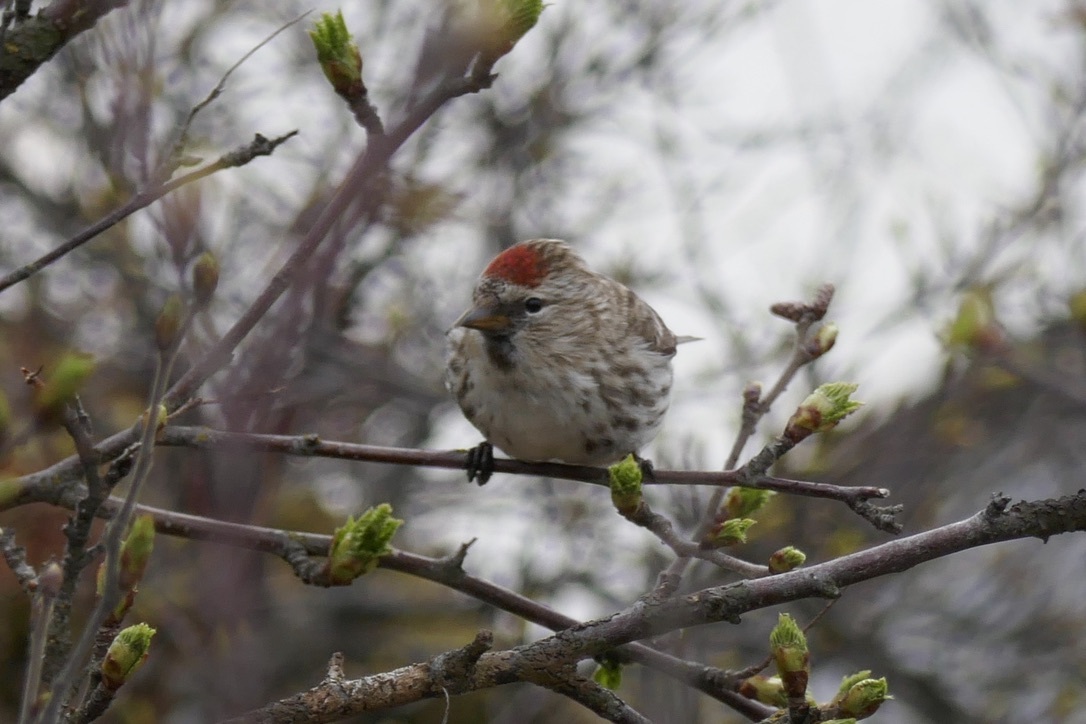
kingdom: Animalia
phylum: Chordata
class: Aves
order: Passeriformes
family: Fringillidae
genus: Acanthis
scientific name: Acanthis flammea
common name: Common redpoll
